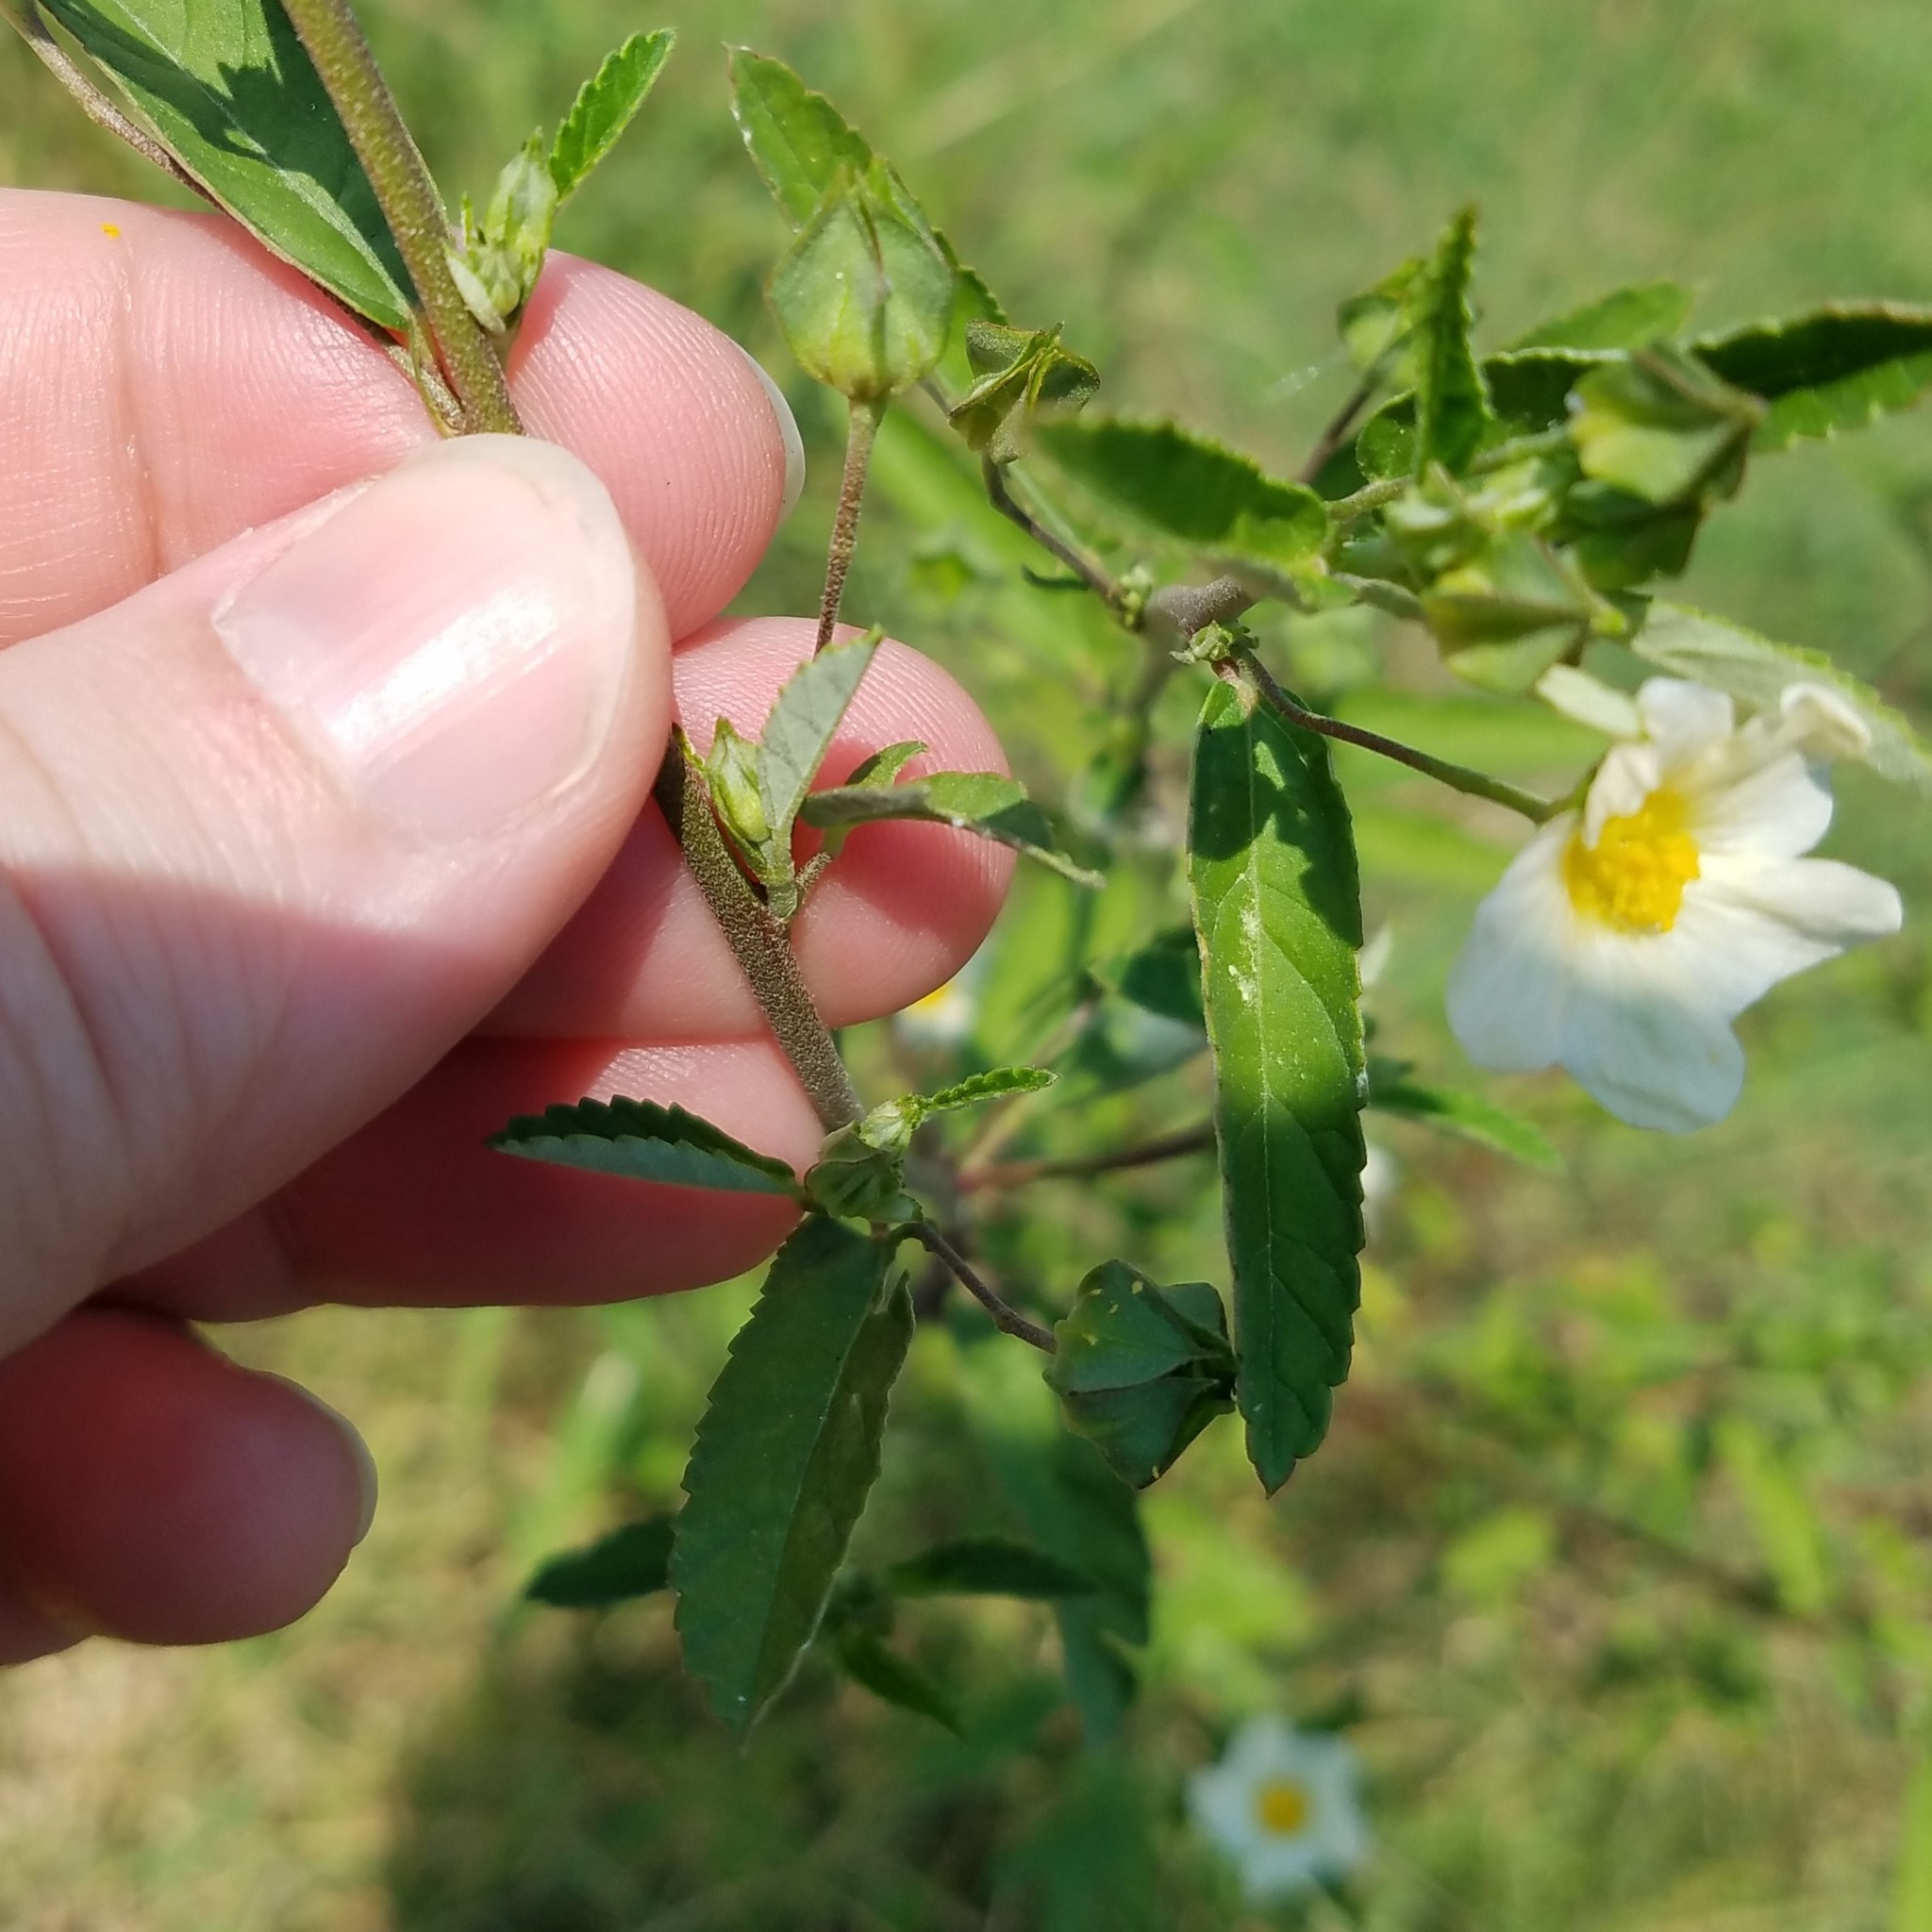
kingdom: Plantae
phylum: Tracheophyta
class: Magnoliopsida
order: Malvales
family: Malvaceae
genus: Sida
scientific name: Sida rhombifolia
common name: Queensland-hemp
